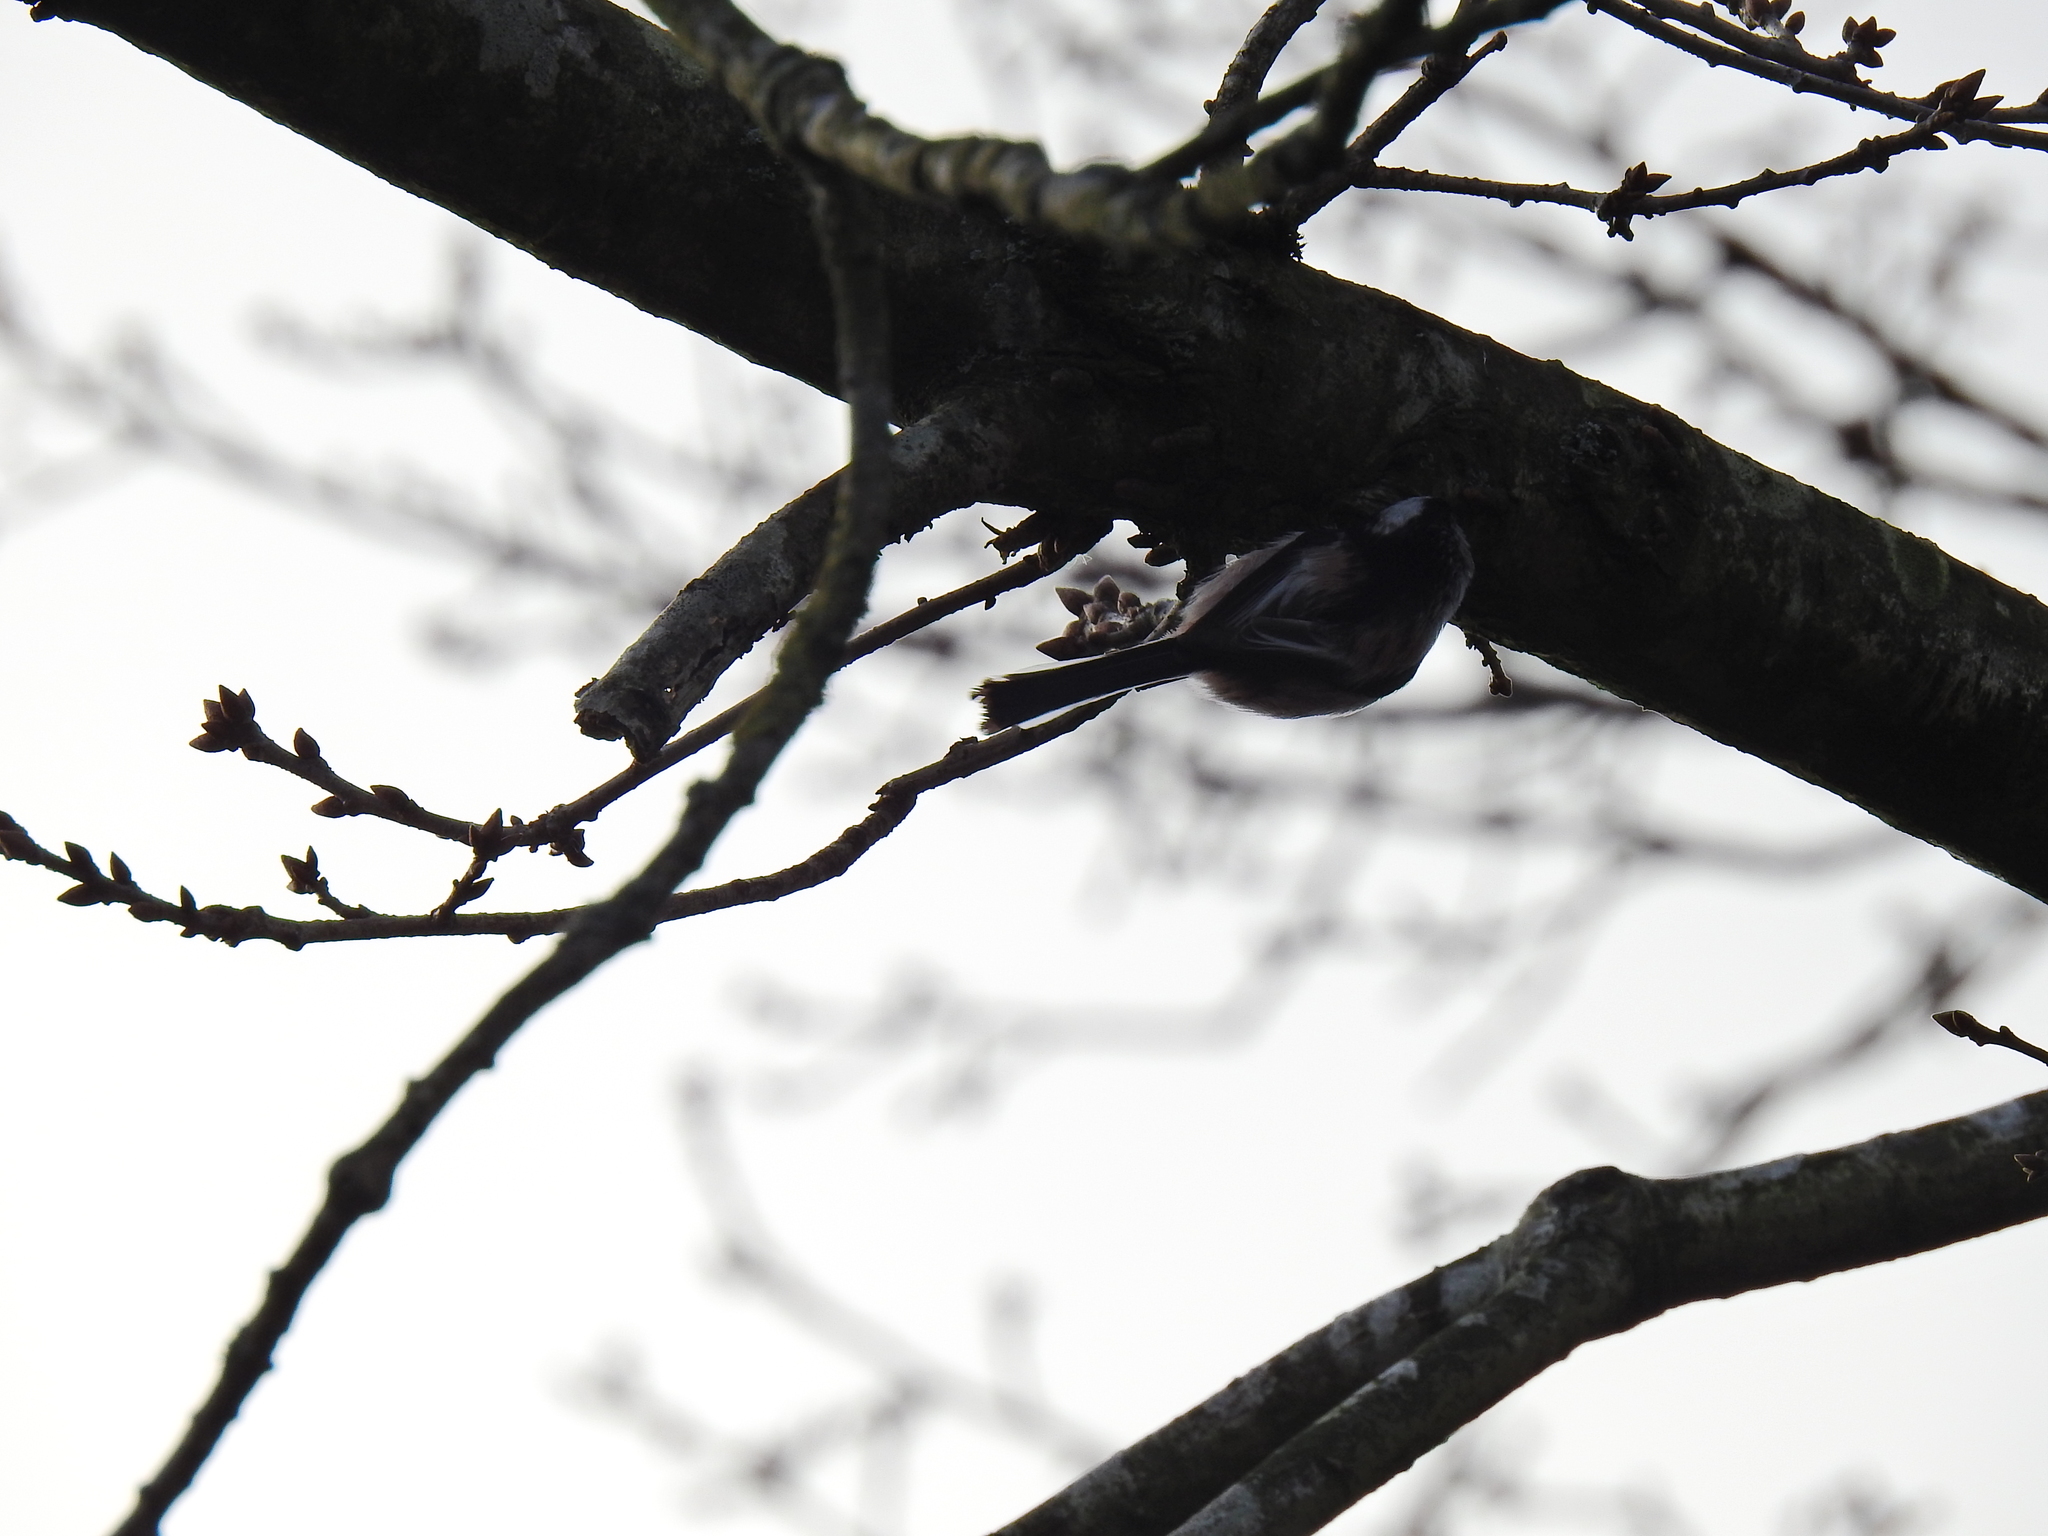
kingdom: Animalia
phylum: Chordata
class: Aves
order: Passeriformes
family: Aegithalidae
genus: Aegithalos
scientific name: Aegithalos caudatus
